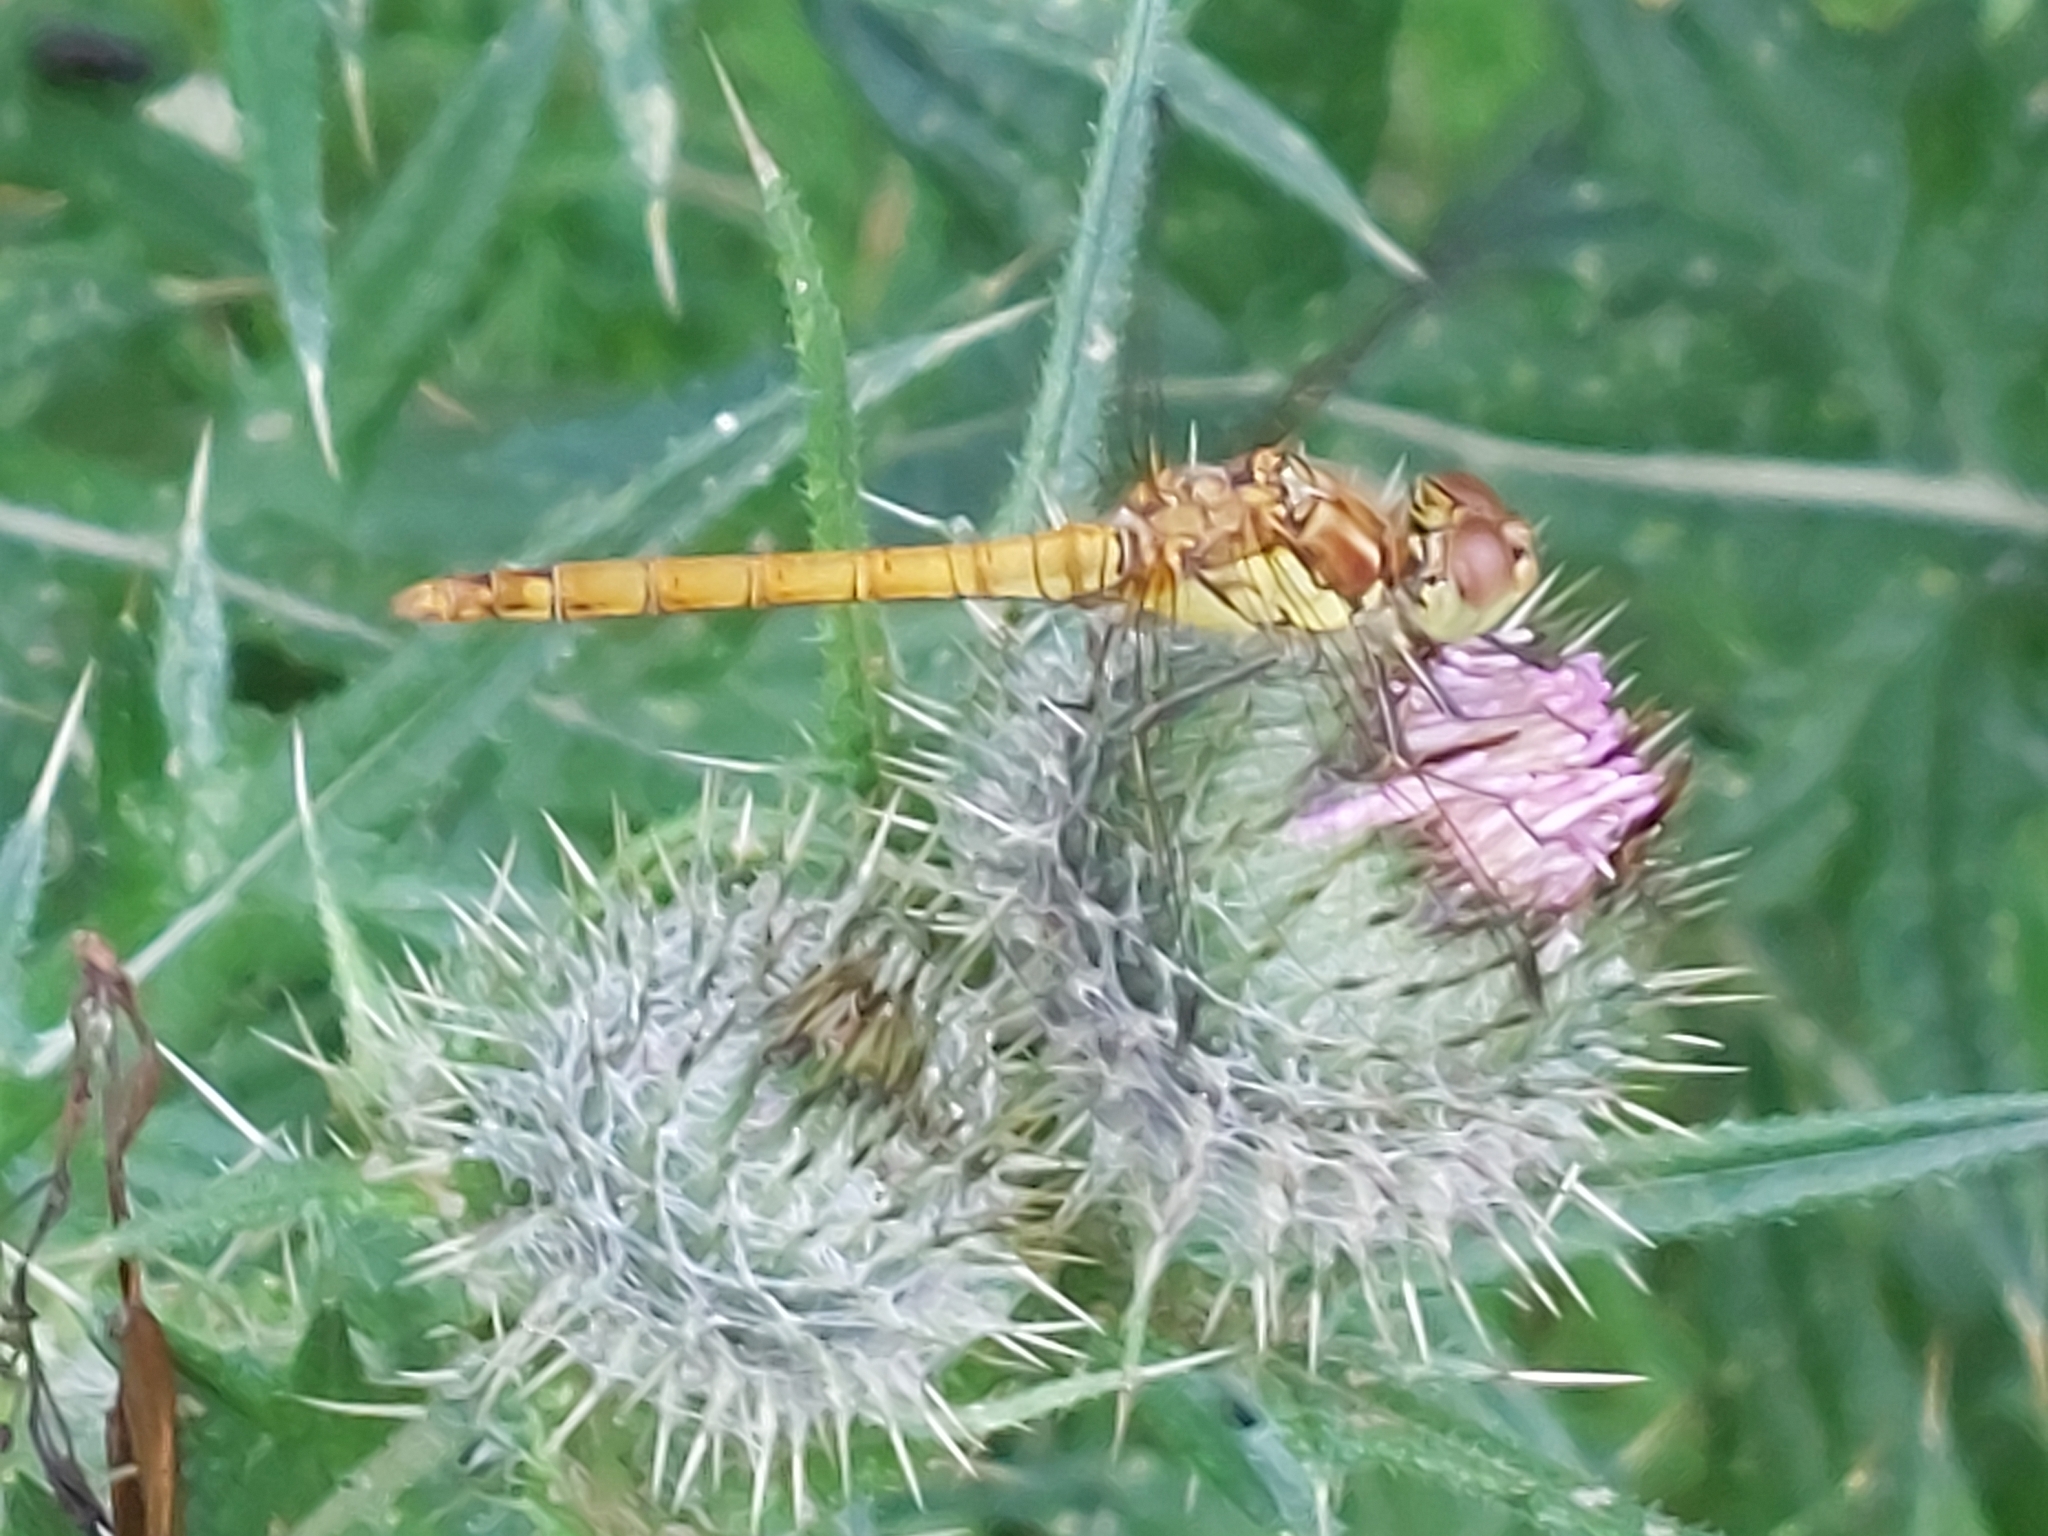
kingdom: Animalia
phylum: Arthropoda
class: Insecta
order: Odonata
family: Libellulidae
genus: Sympetrum
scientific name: Sympetrum striolatum
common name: Common darter
